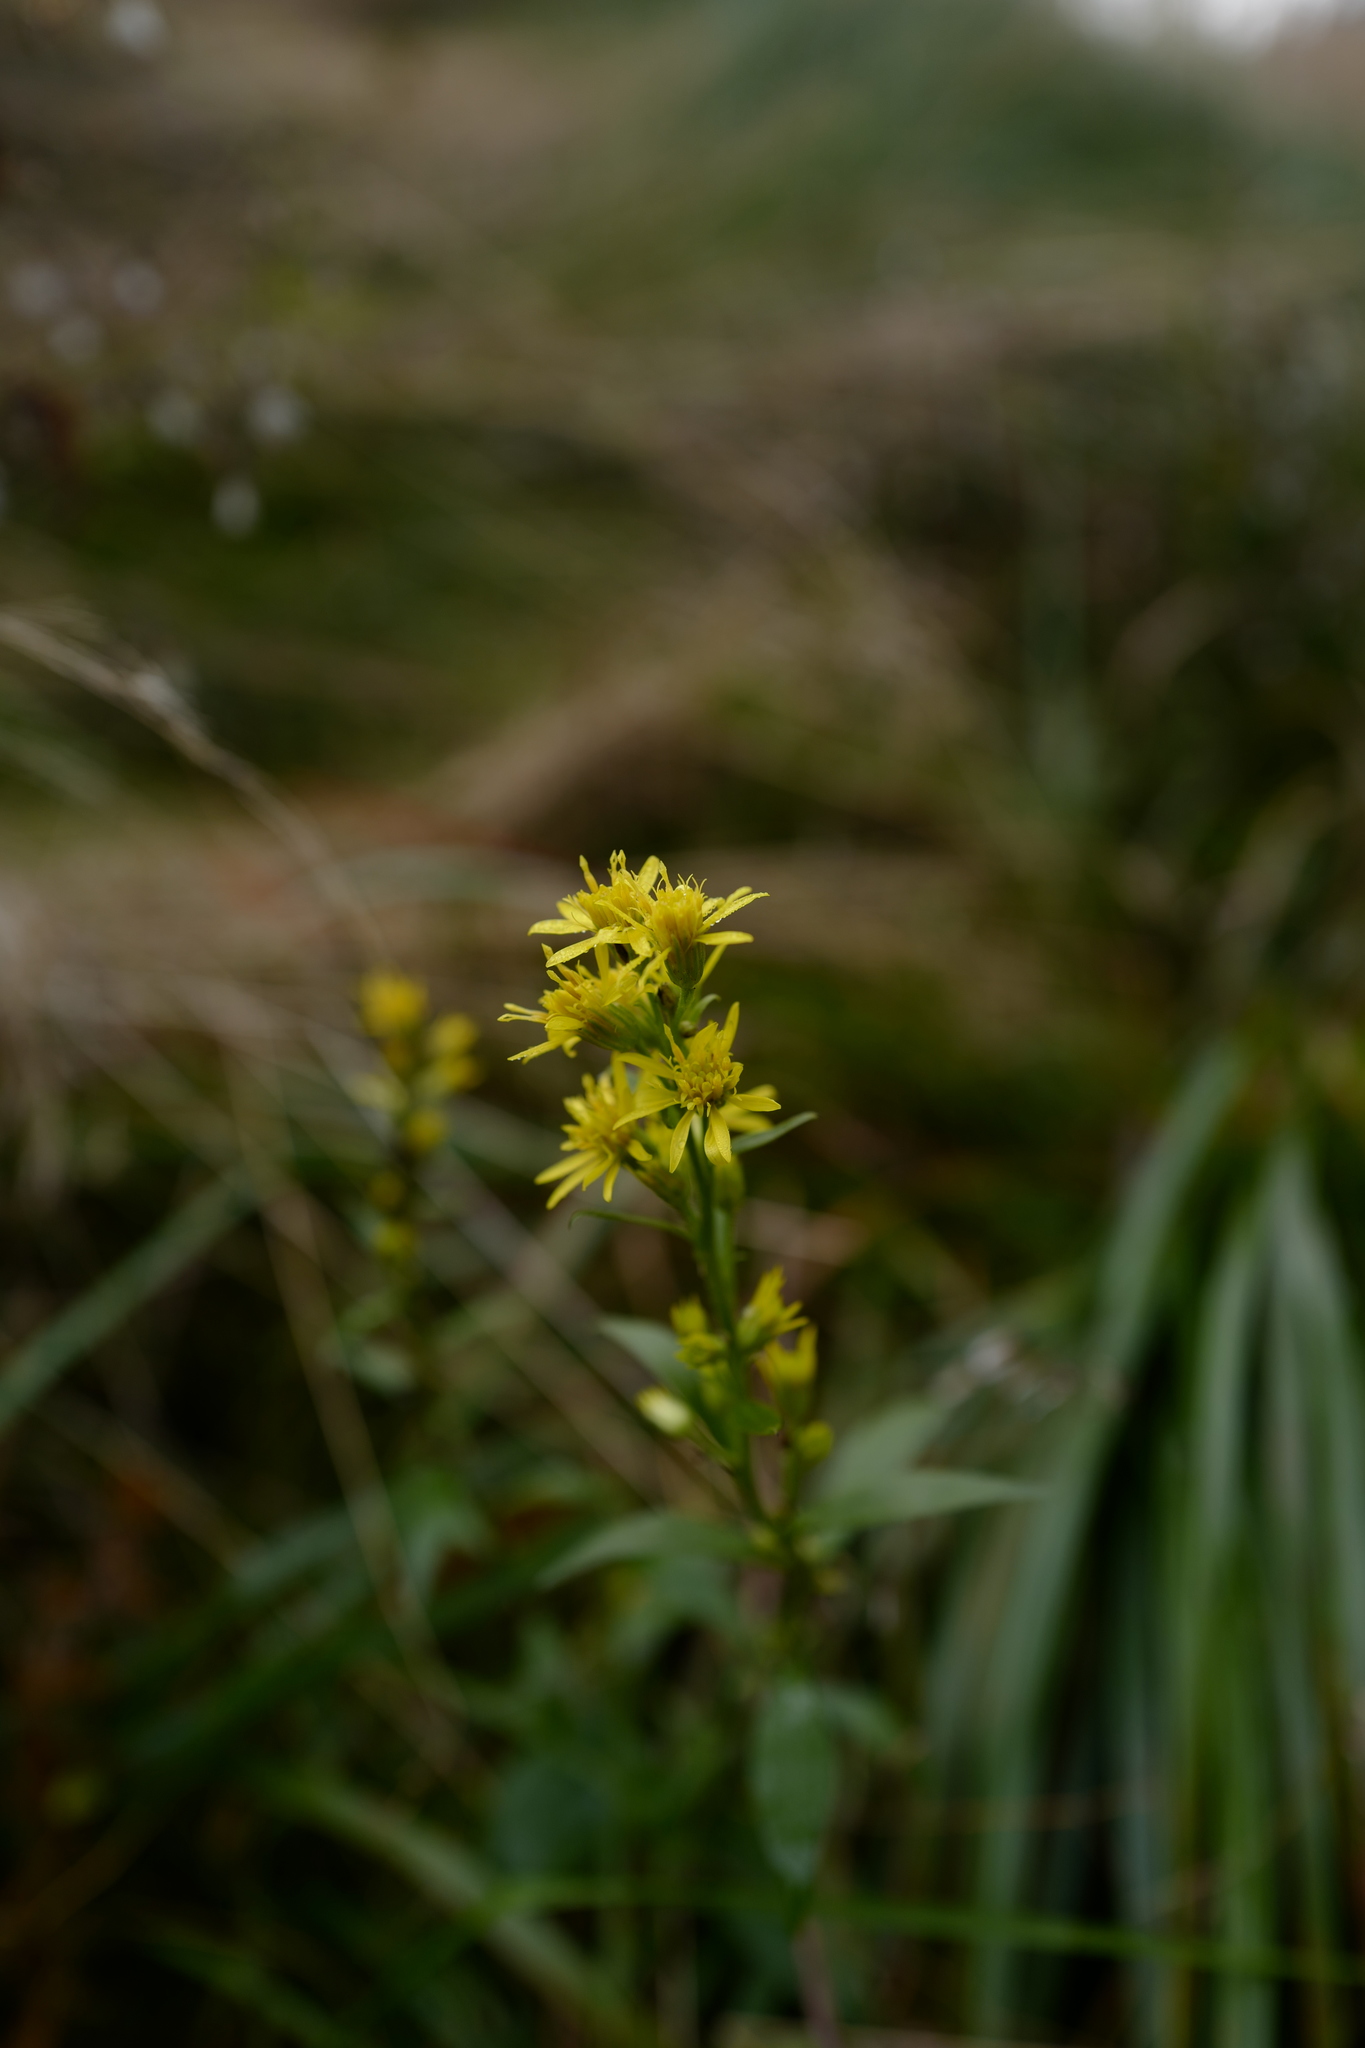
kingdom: Plantae
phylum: Tracheophyta
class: Magnoliopsida
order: Asterales
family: Asteraceae
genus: Solidago
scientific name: Solidago virgaurea
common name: Goldenrod
